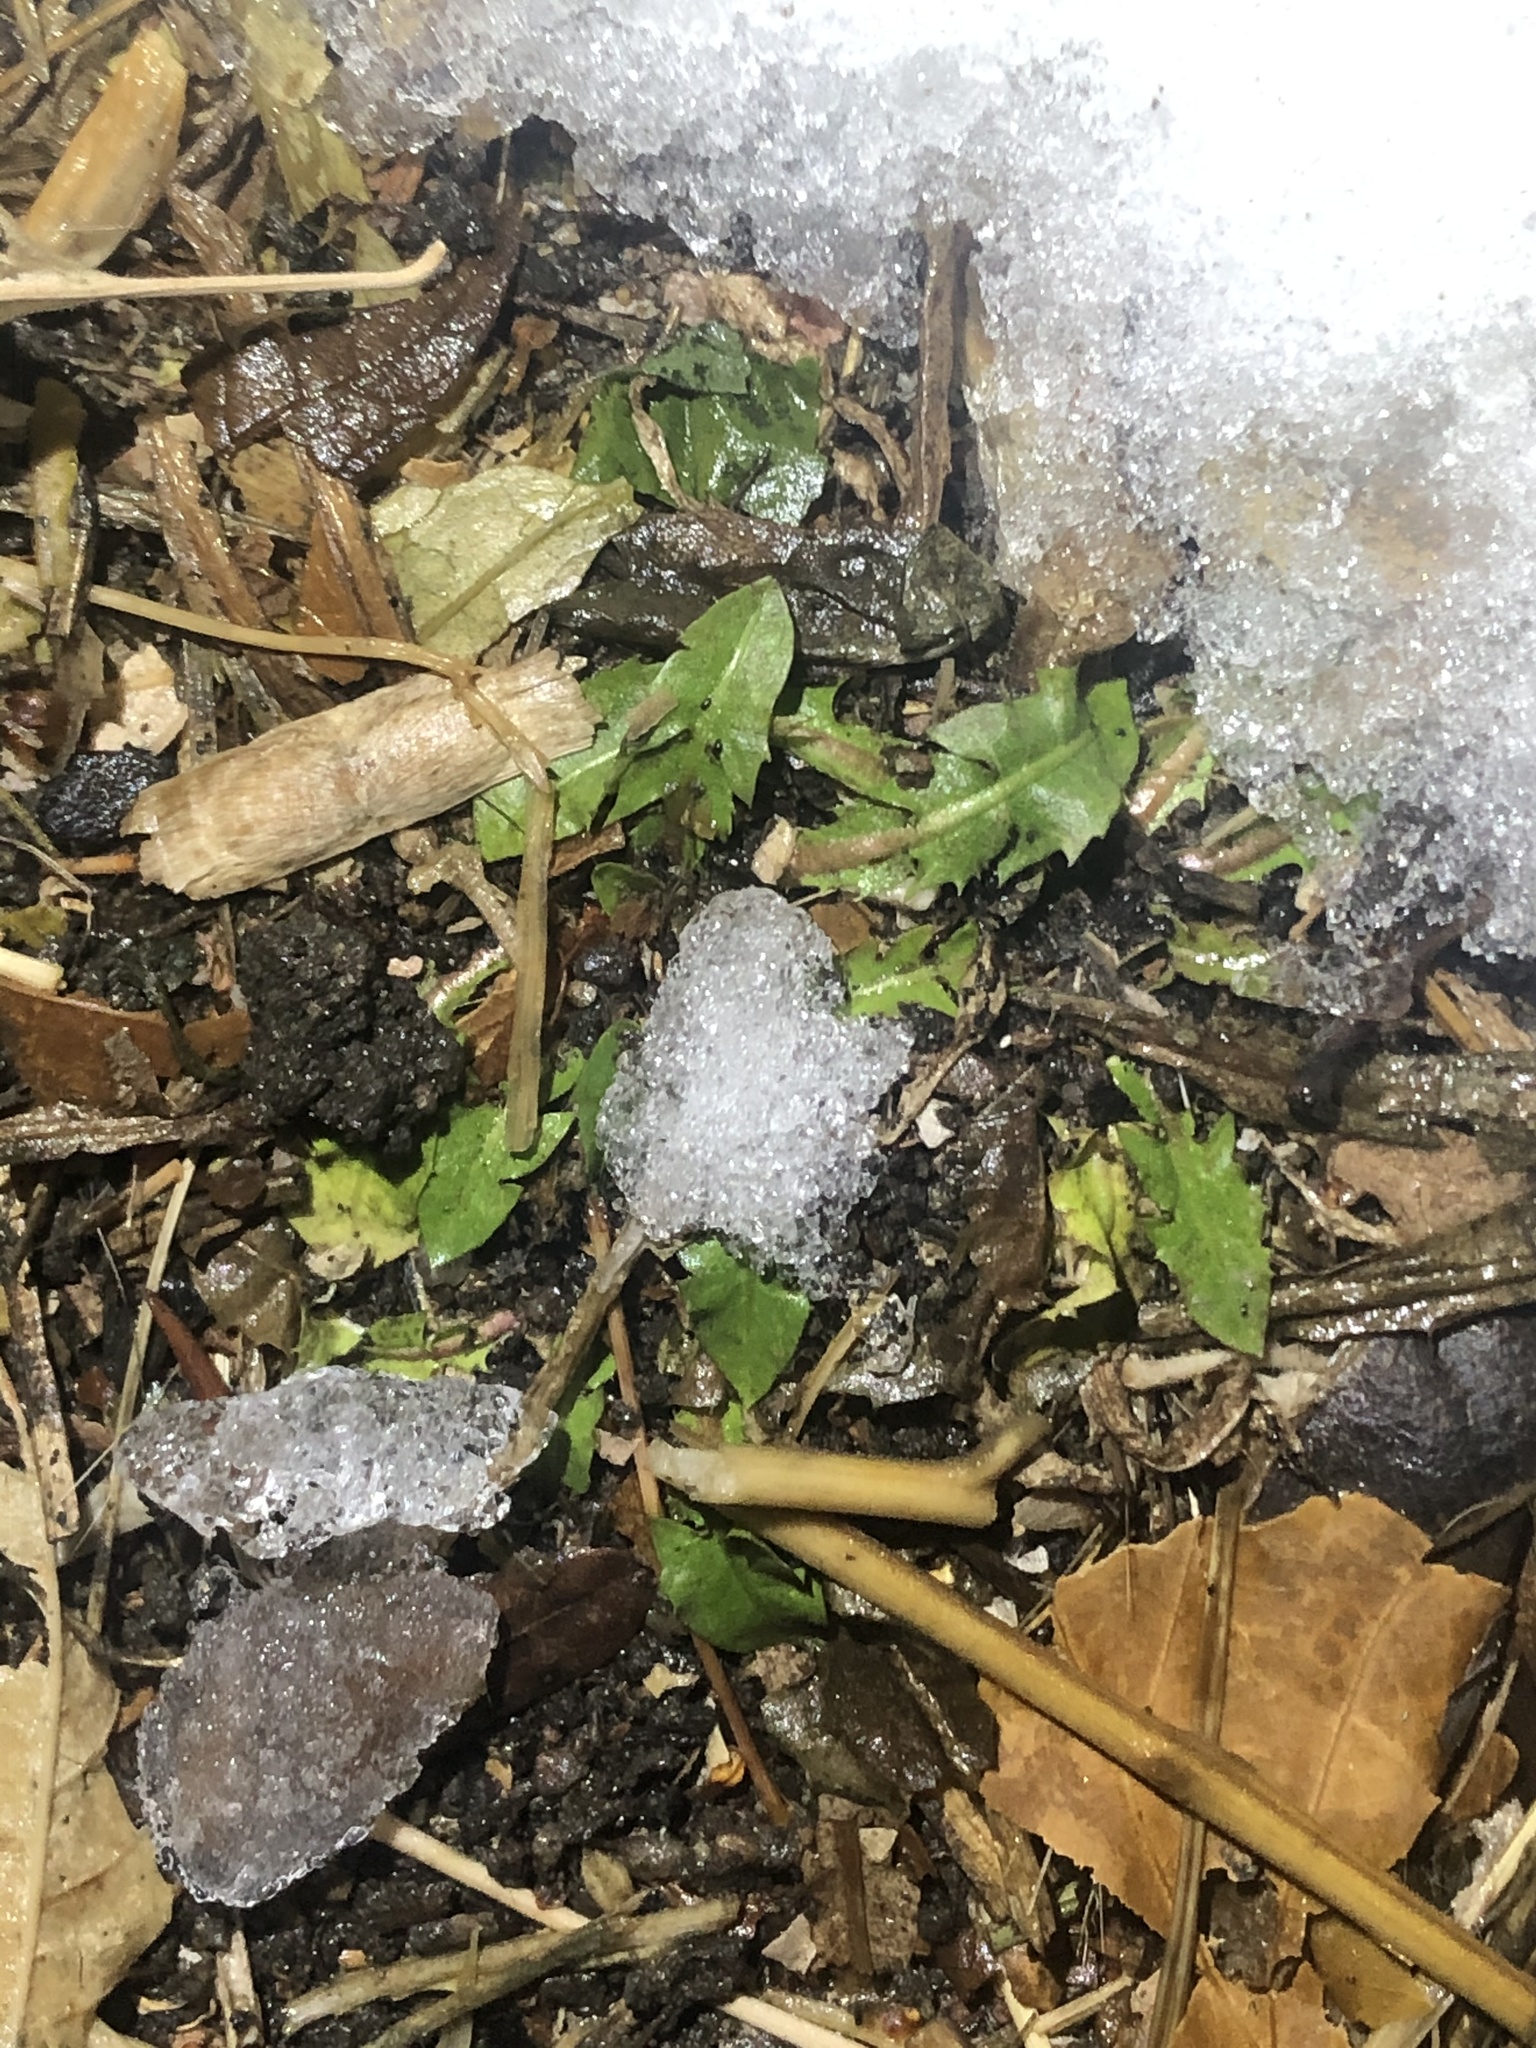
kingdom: Plantae
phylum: Tracheophyta
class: Magnoliopsida
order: Asterales
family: Asteraceae
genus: Taraxacum
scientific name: Taraxacum
